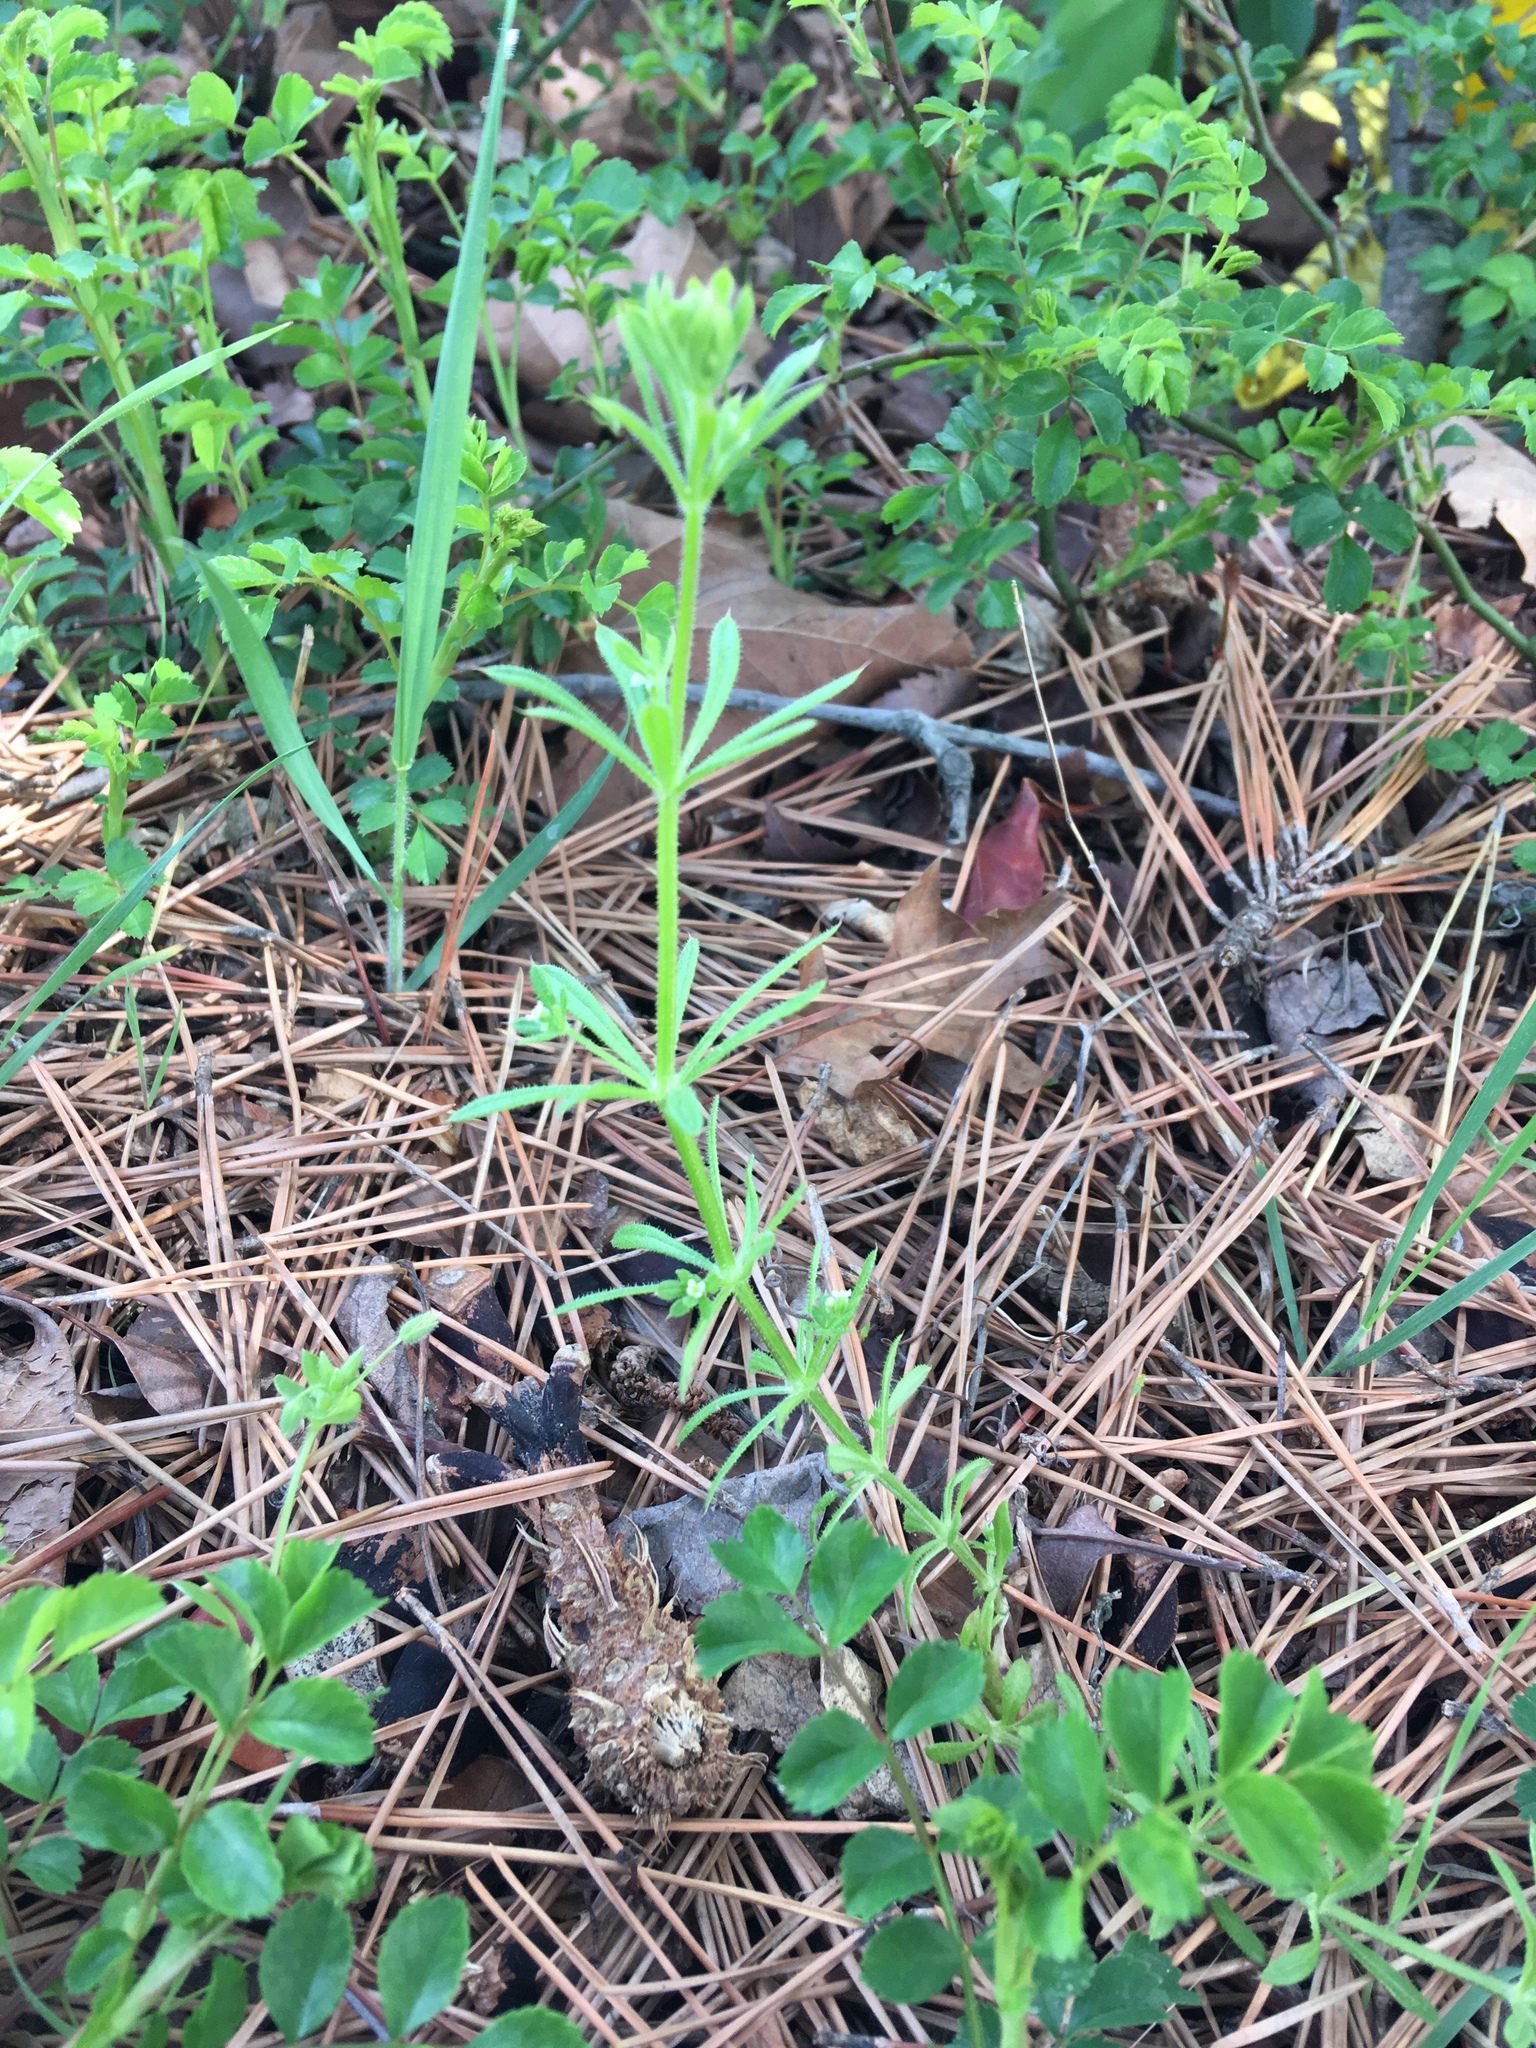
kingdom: Plantae
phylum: Tracheophyta
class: Magnoliopsida
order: Gentianales
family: Rubiaceae
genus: Galium
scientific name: Galium aparine
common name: Cleavers
